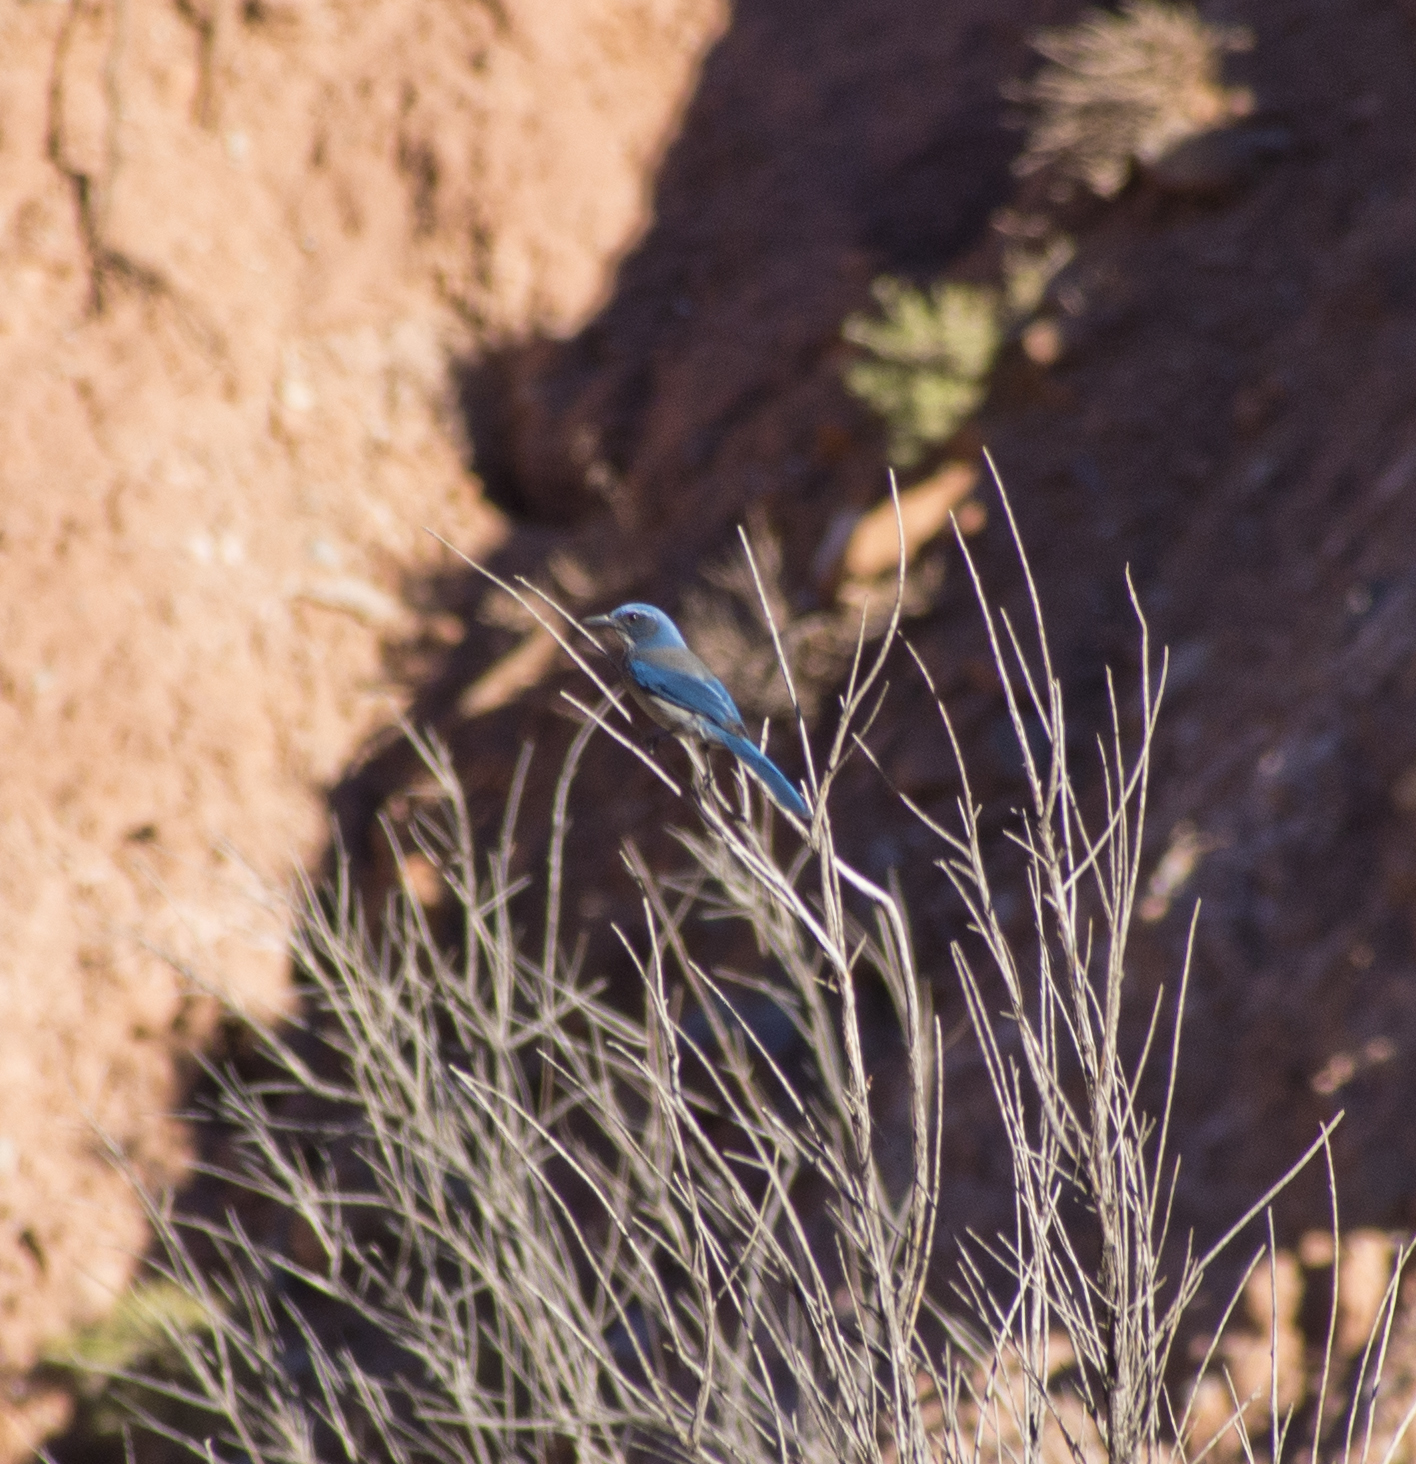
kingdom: Animalia
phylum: Chordata
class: Aves
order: Passeriformes
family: Corvidae
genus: Aphelocoma
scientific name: Aphelocoma woodhouseii
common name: Woodhouse's scrub-jay
